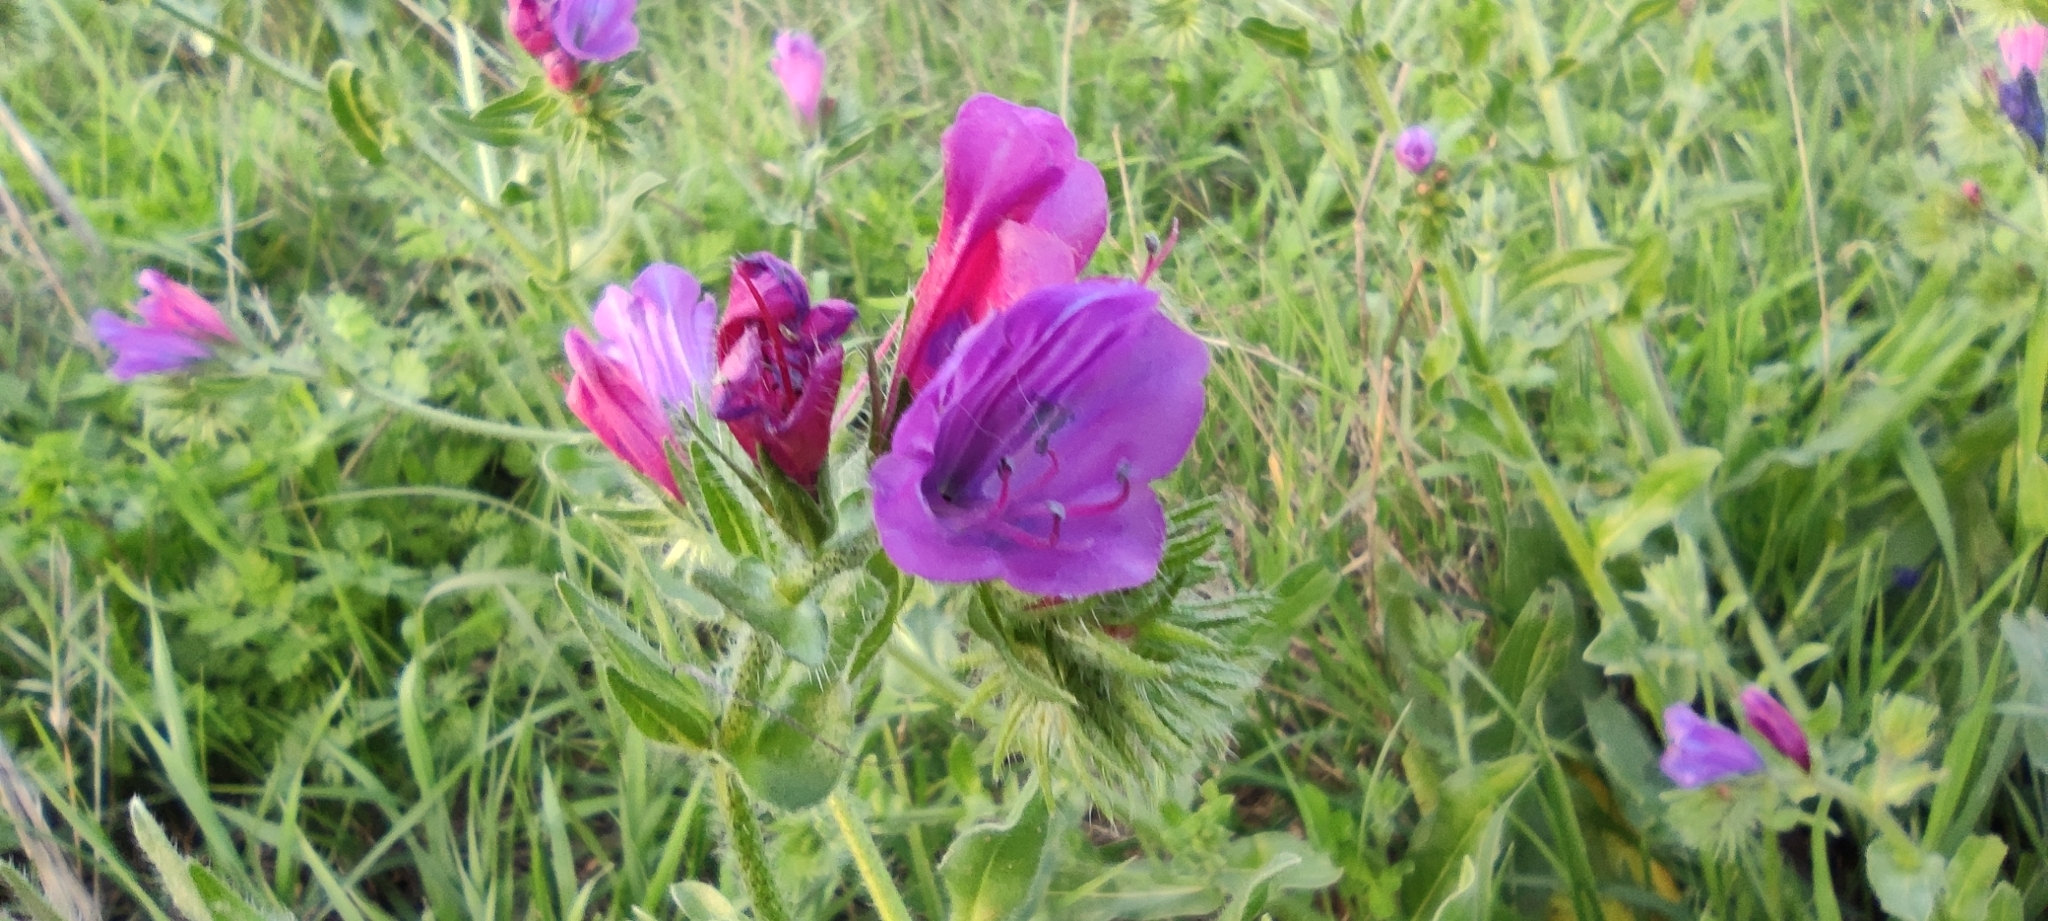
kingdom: Plantae
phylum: Tracheophyta
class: Magnoliopsida
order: Boraginales
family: Boraginaceae
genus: Echium
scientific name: Echium plantagineum
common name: Purple viper's-bugloss
